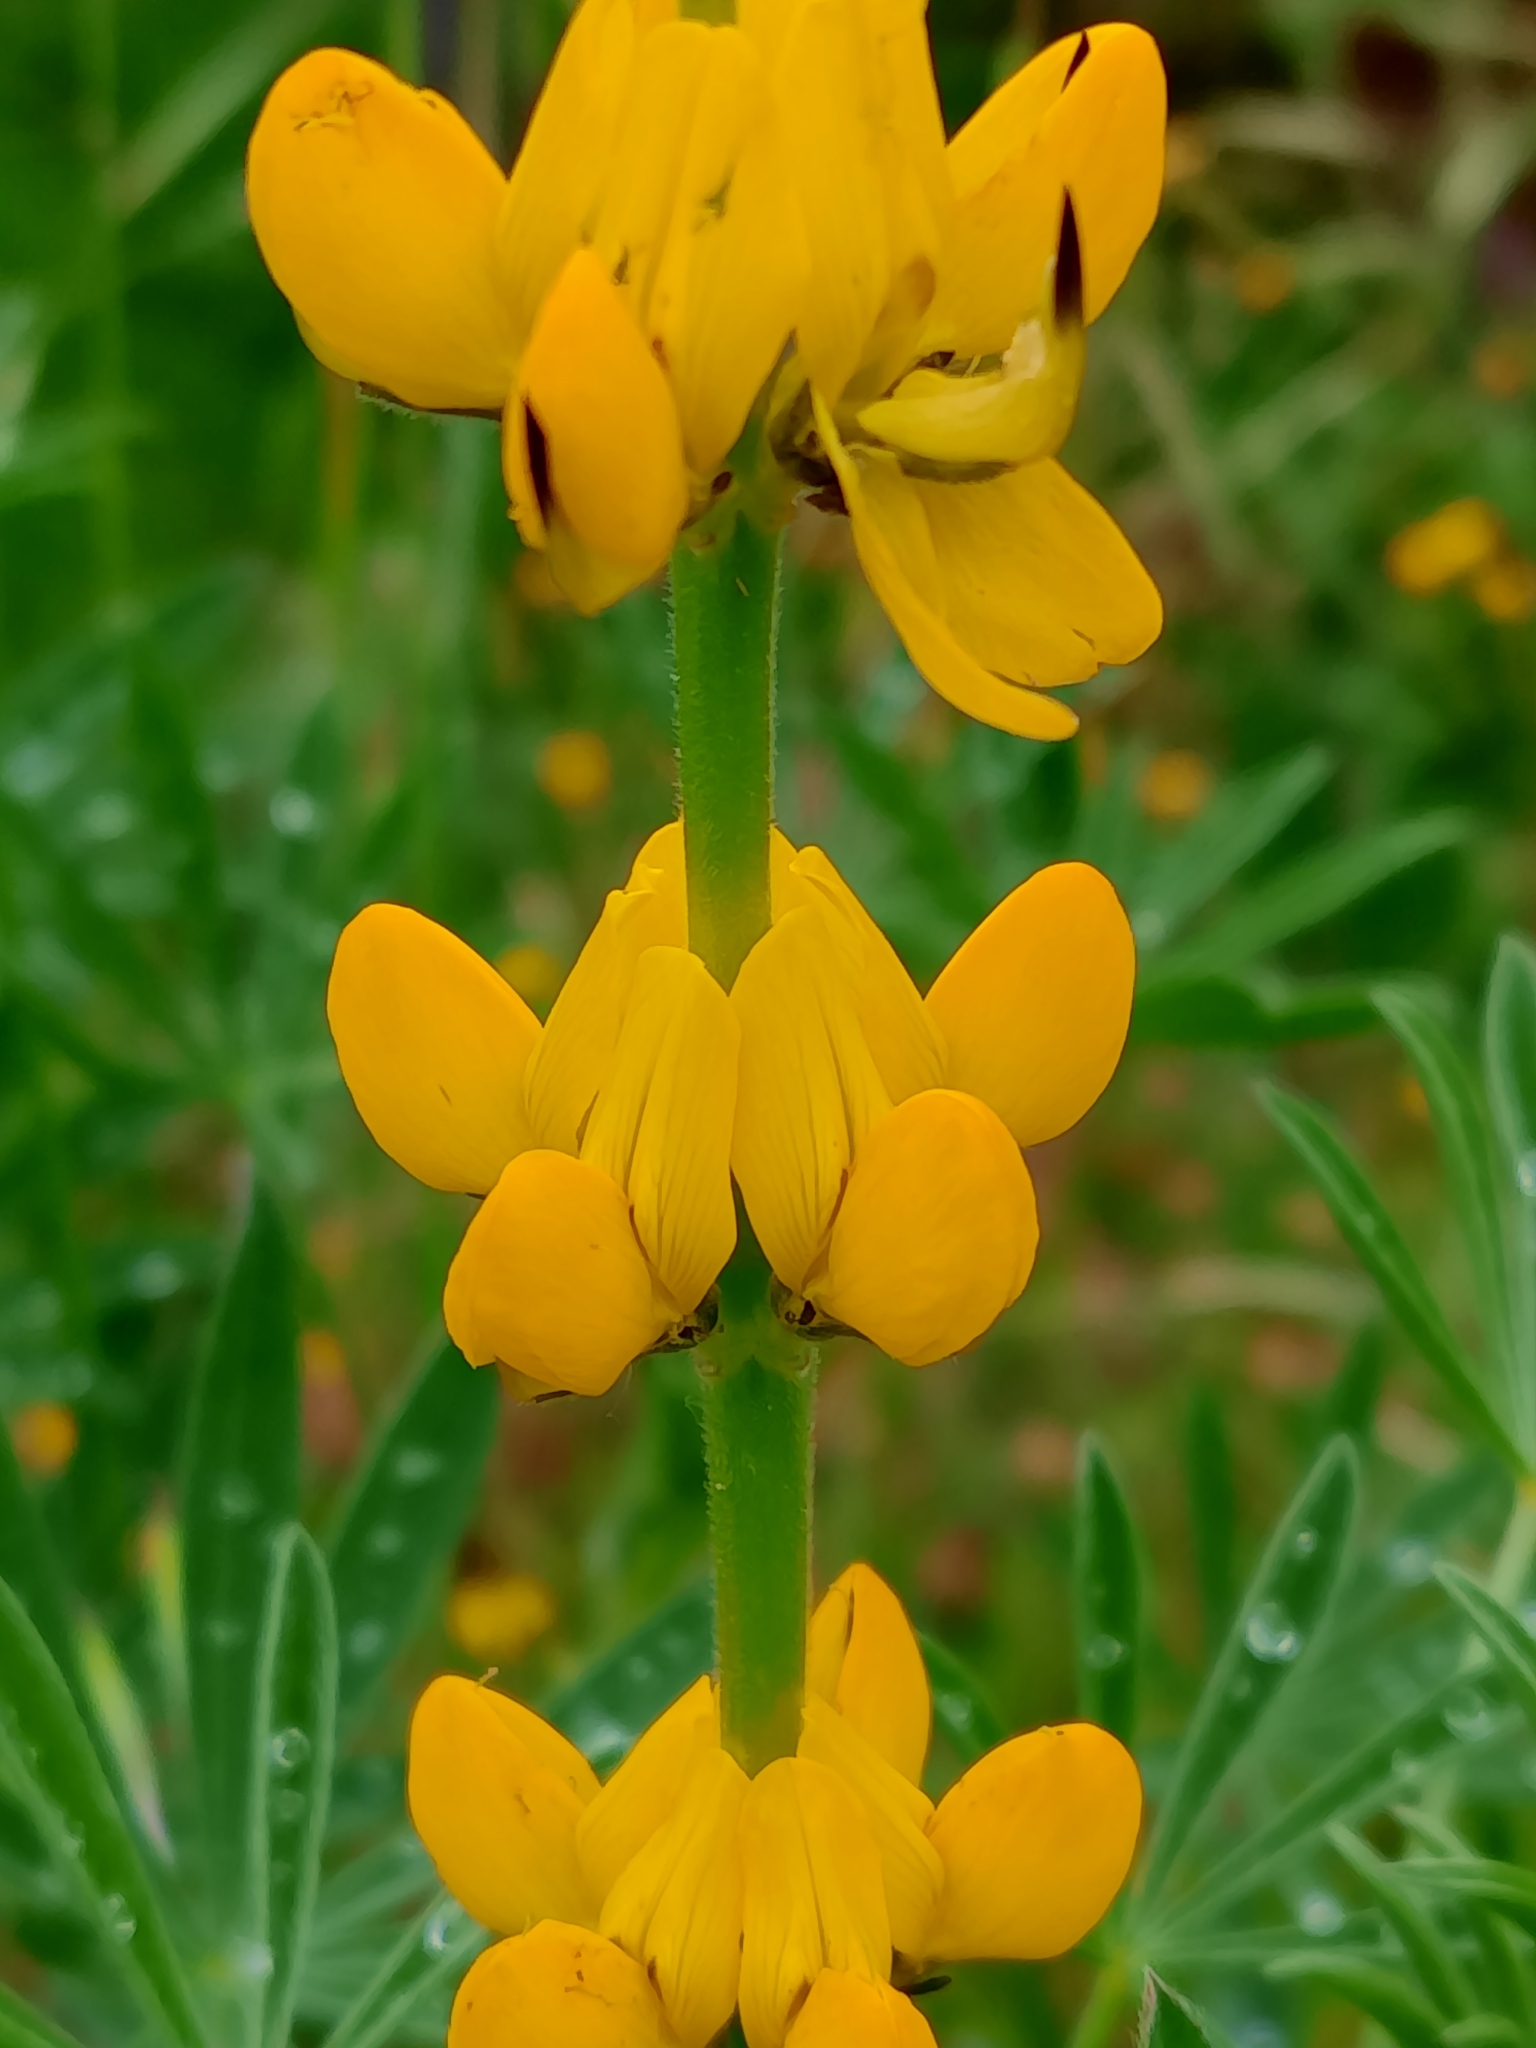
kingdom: Plantae
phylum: Tracheophyta
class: Magnoliopsida
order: Fabales
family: Fabaceae
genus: Lupinus
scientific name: Lupinus luteus
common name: European yellow lupine
